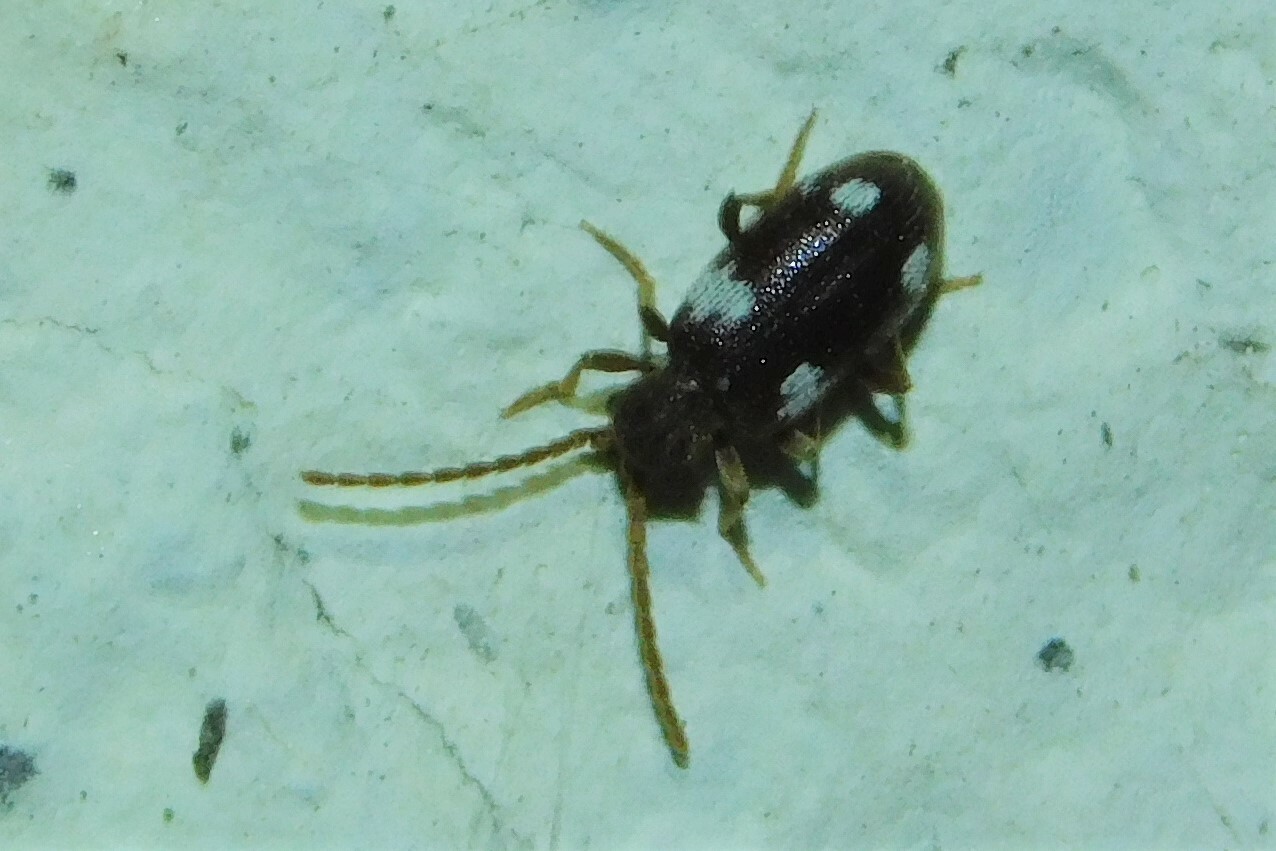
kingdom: Animalia
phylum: Arthropoda
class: Insecta
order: Coleoptera
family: Ptinidae
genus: Ptinus
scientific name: Ptinus sexpunctatus
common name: Six-spotted spider beetle
